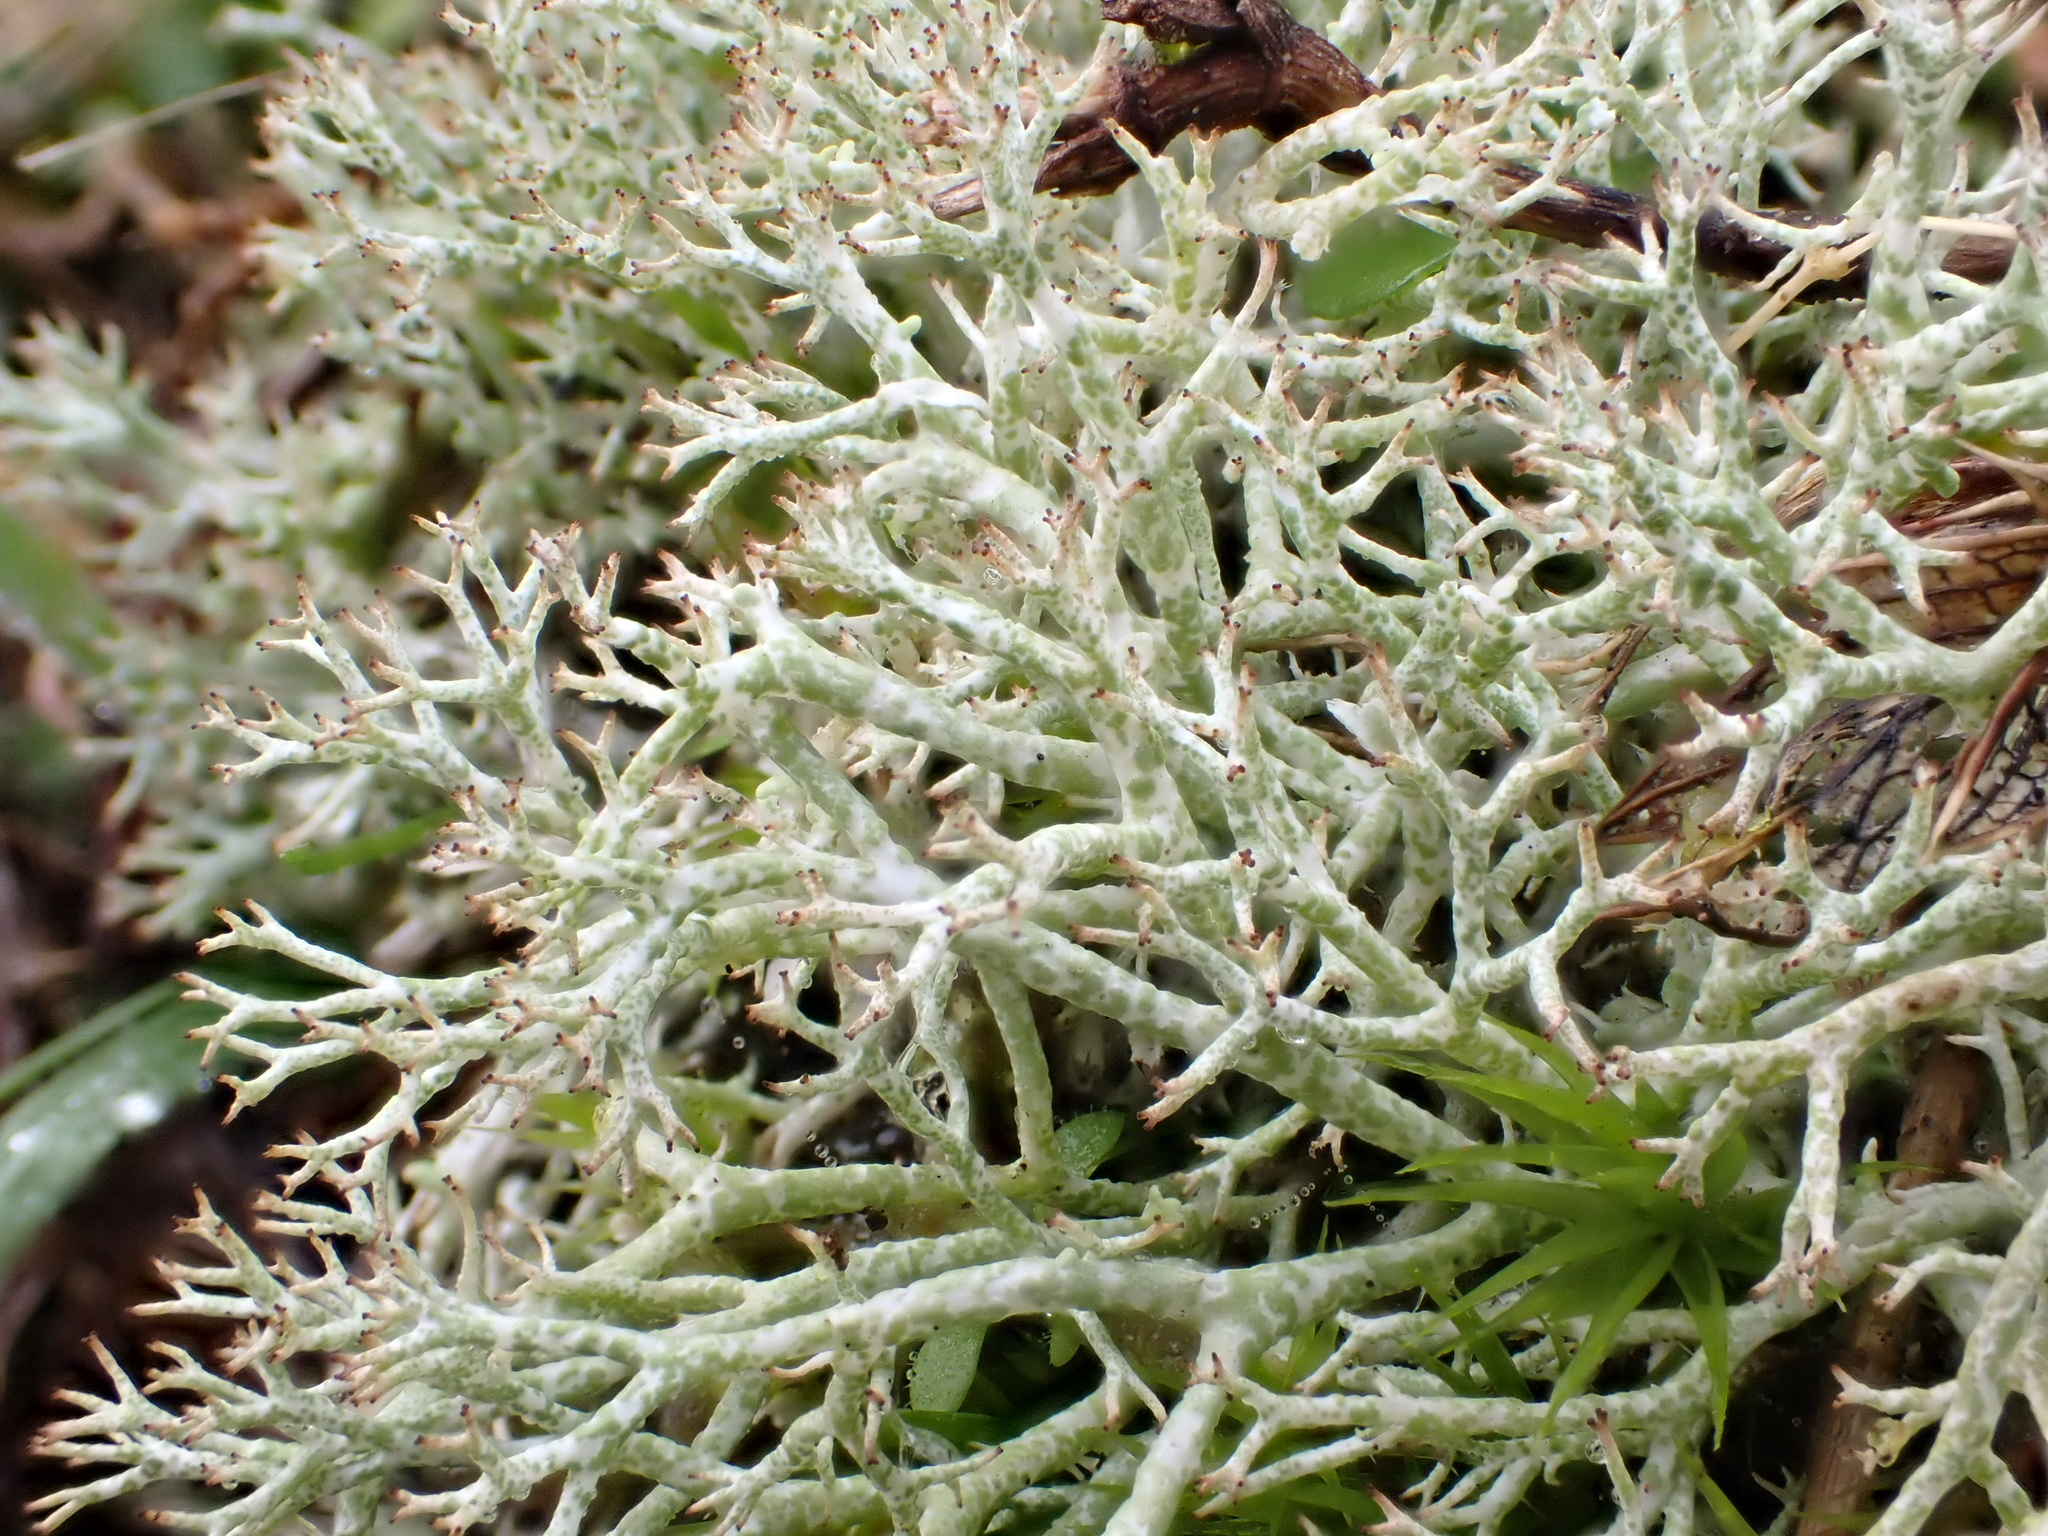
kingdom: Fungi
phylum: Ascomycota
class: Lecanoromycetes
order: Lecanorales
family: Cladoniaceae
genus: Cladonia
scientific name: Cladonia rangiformis
